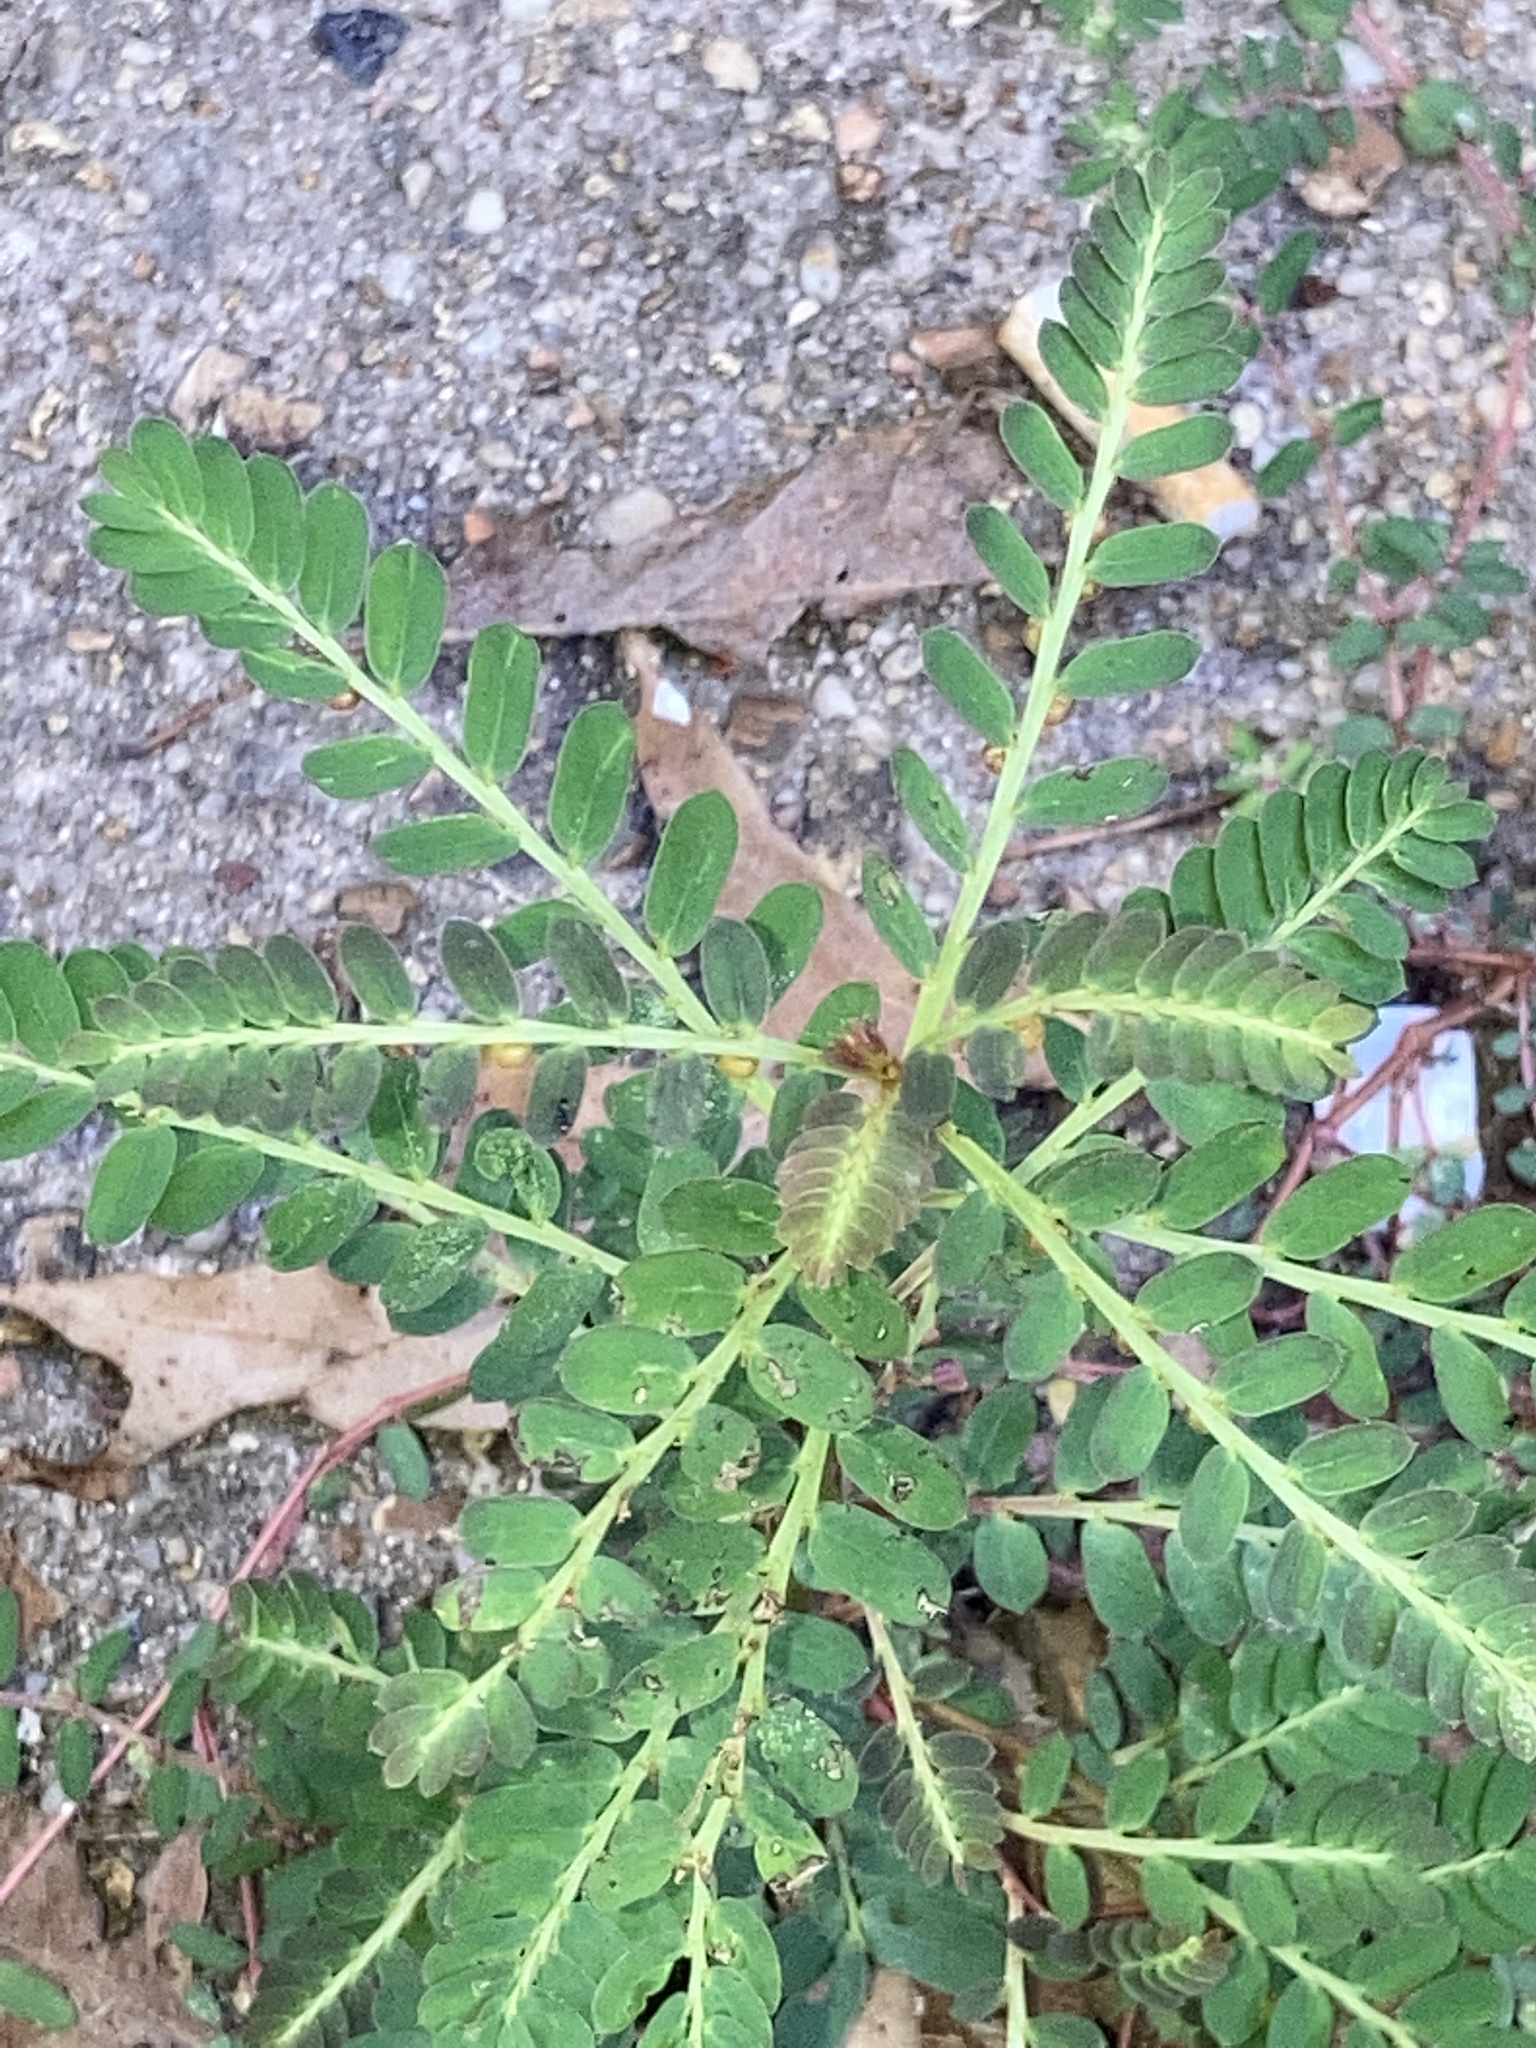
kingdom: Plantae
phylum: Tracheophyta
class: Magnoliopsida
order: Malpighiales
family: Phyllanthaceae
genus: Phyllanthus
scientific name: Phyllanthus urinaria
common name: Chamber bitter
